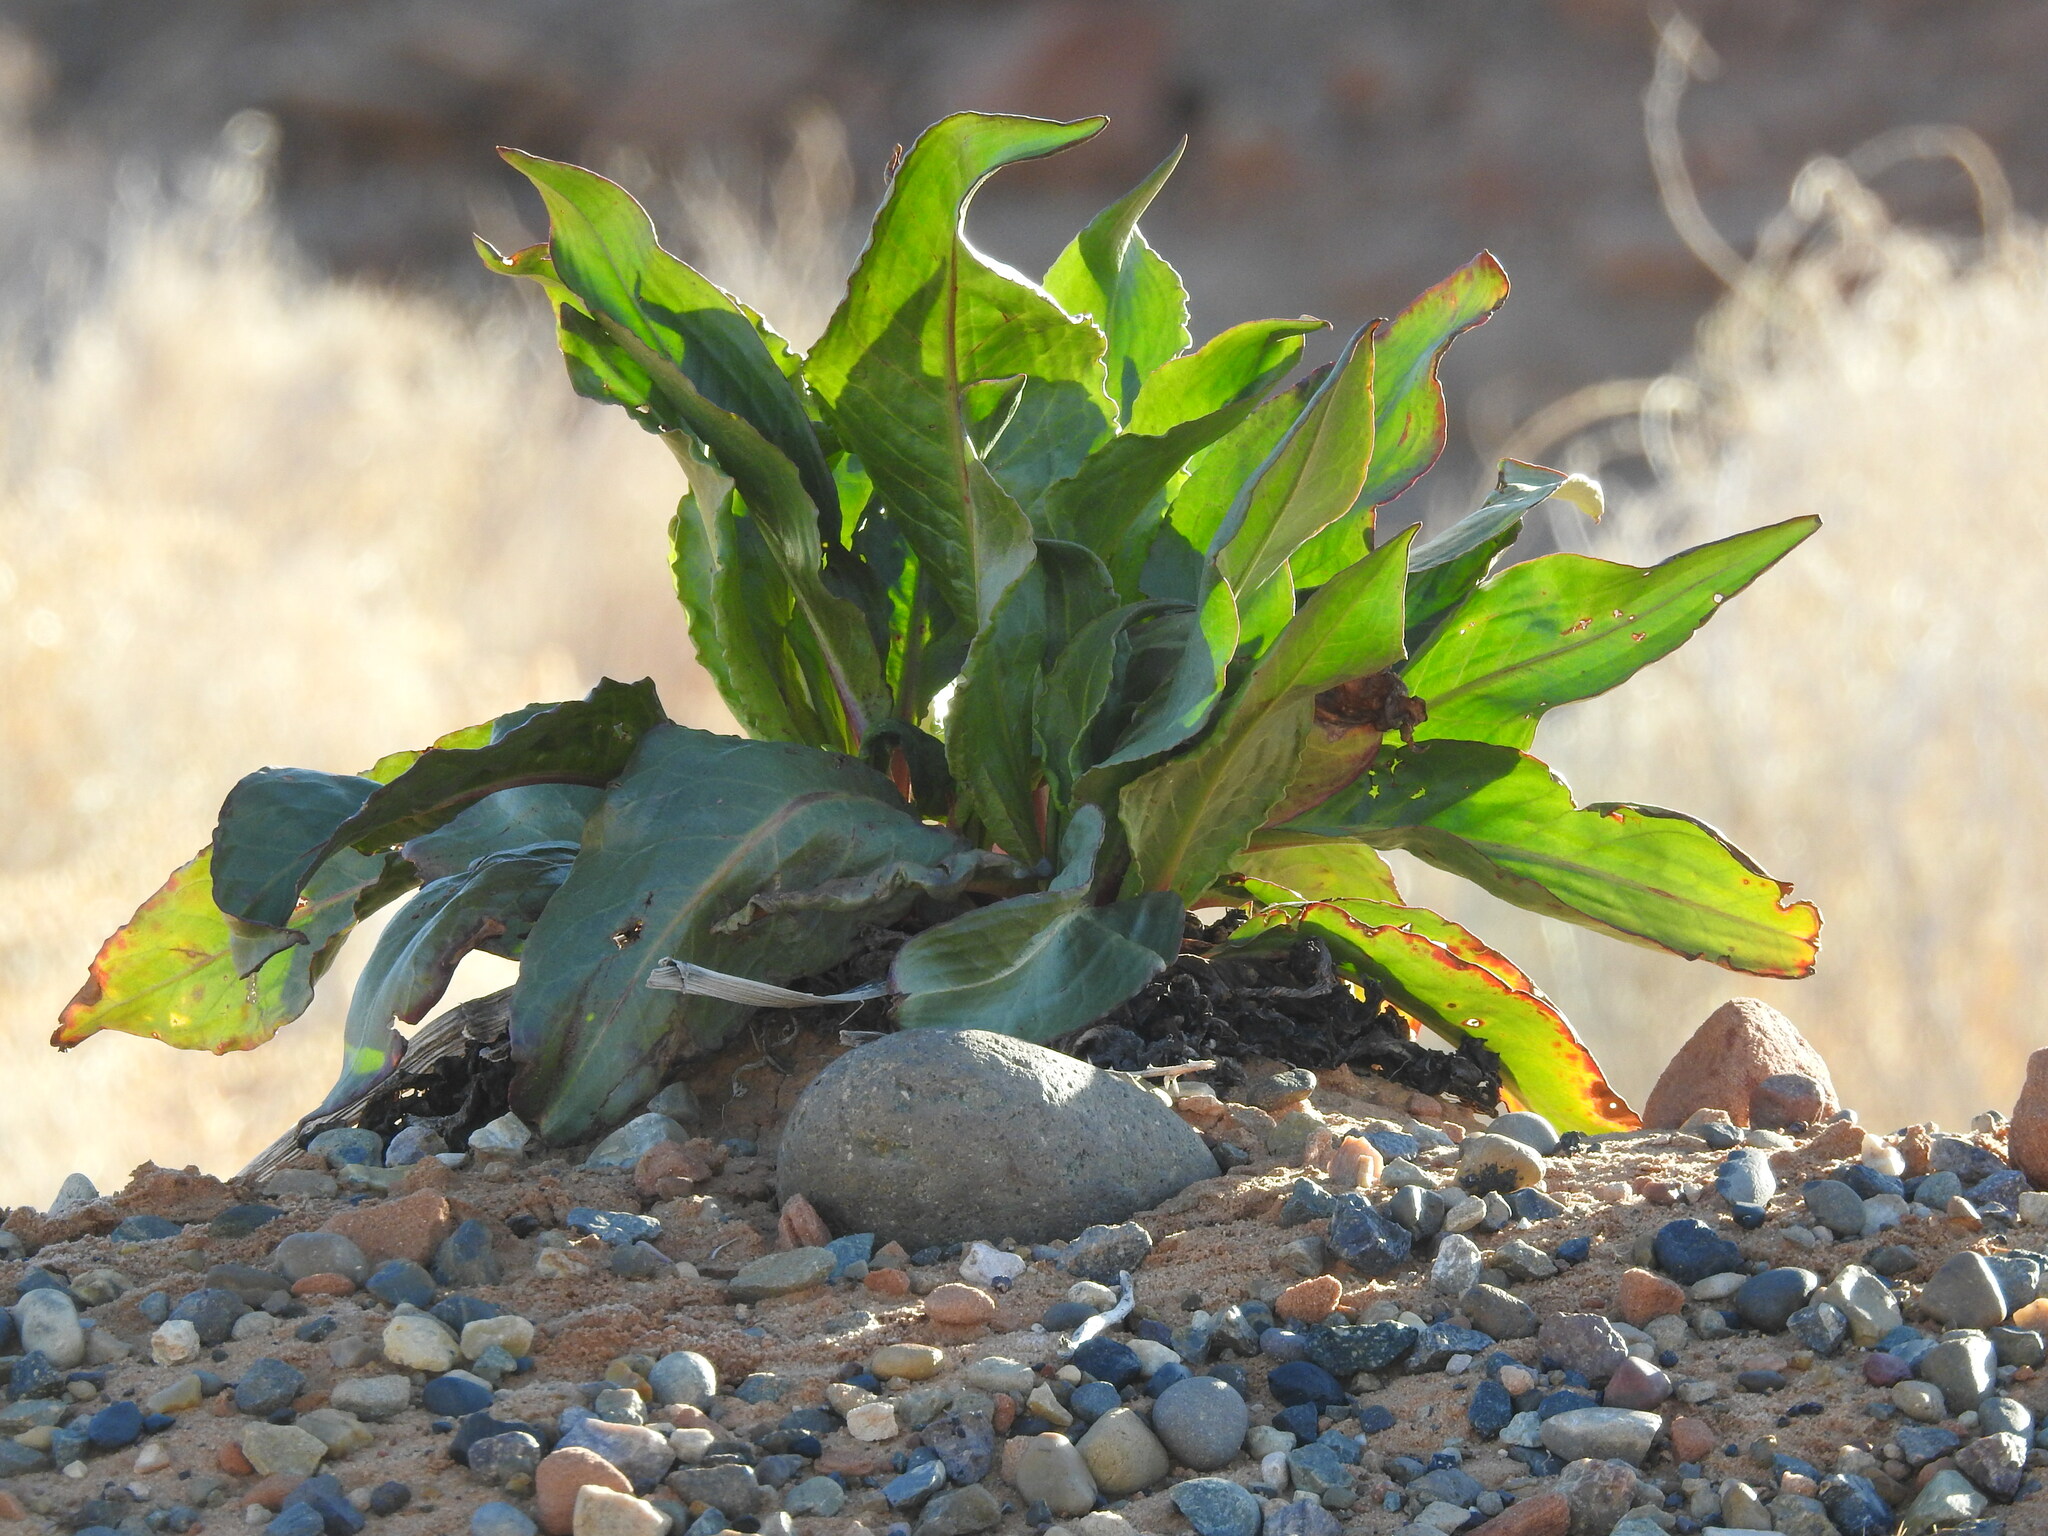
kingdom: Plantae
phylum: Tracheophyta
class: Magnoliopsida
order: Caryophyllales
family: Polygonaceae
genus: Rumex
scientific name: Rumex hymenosepalus
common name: Ganagra
